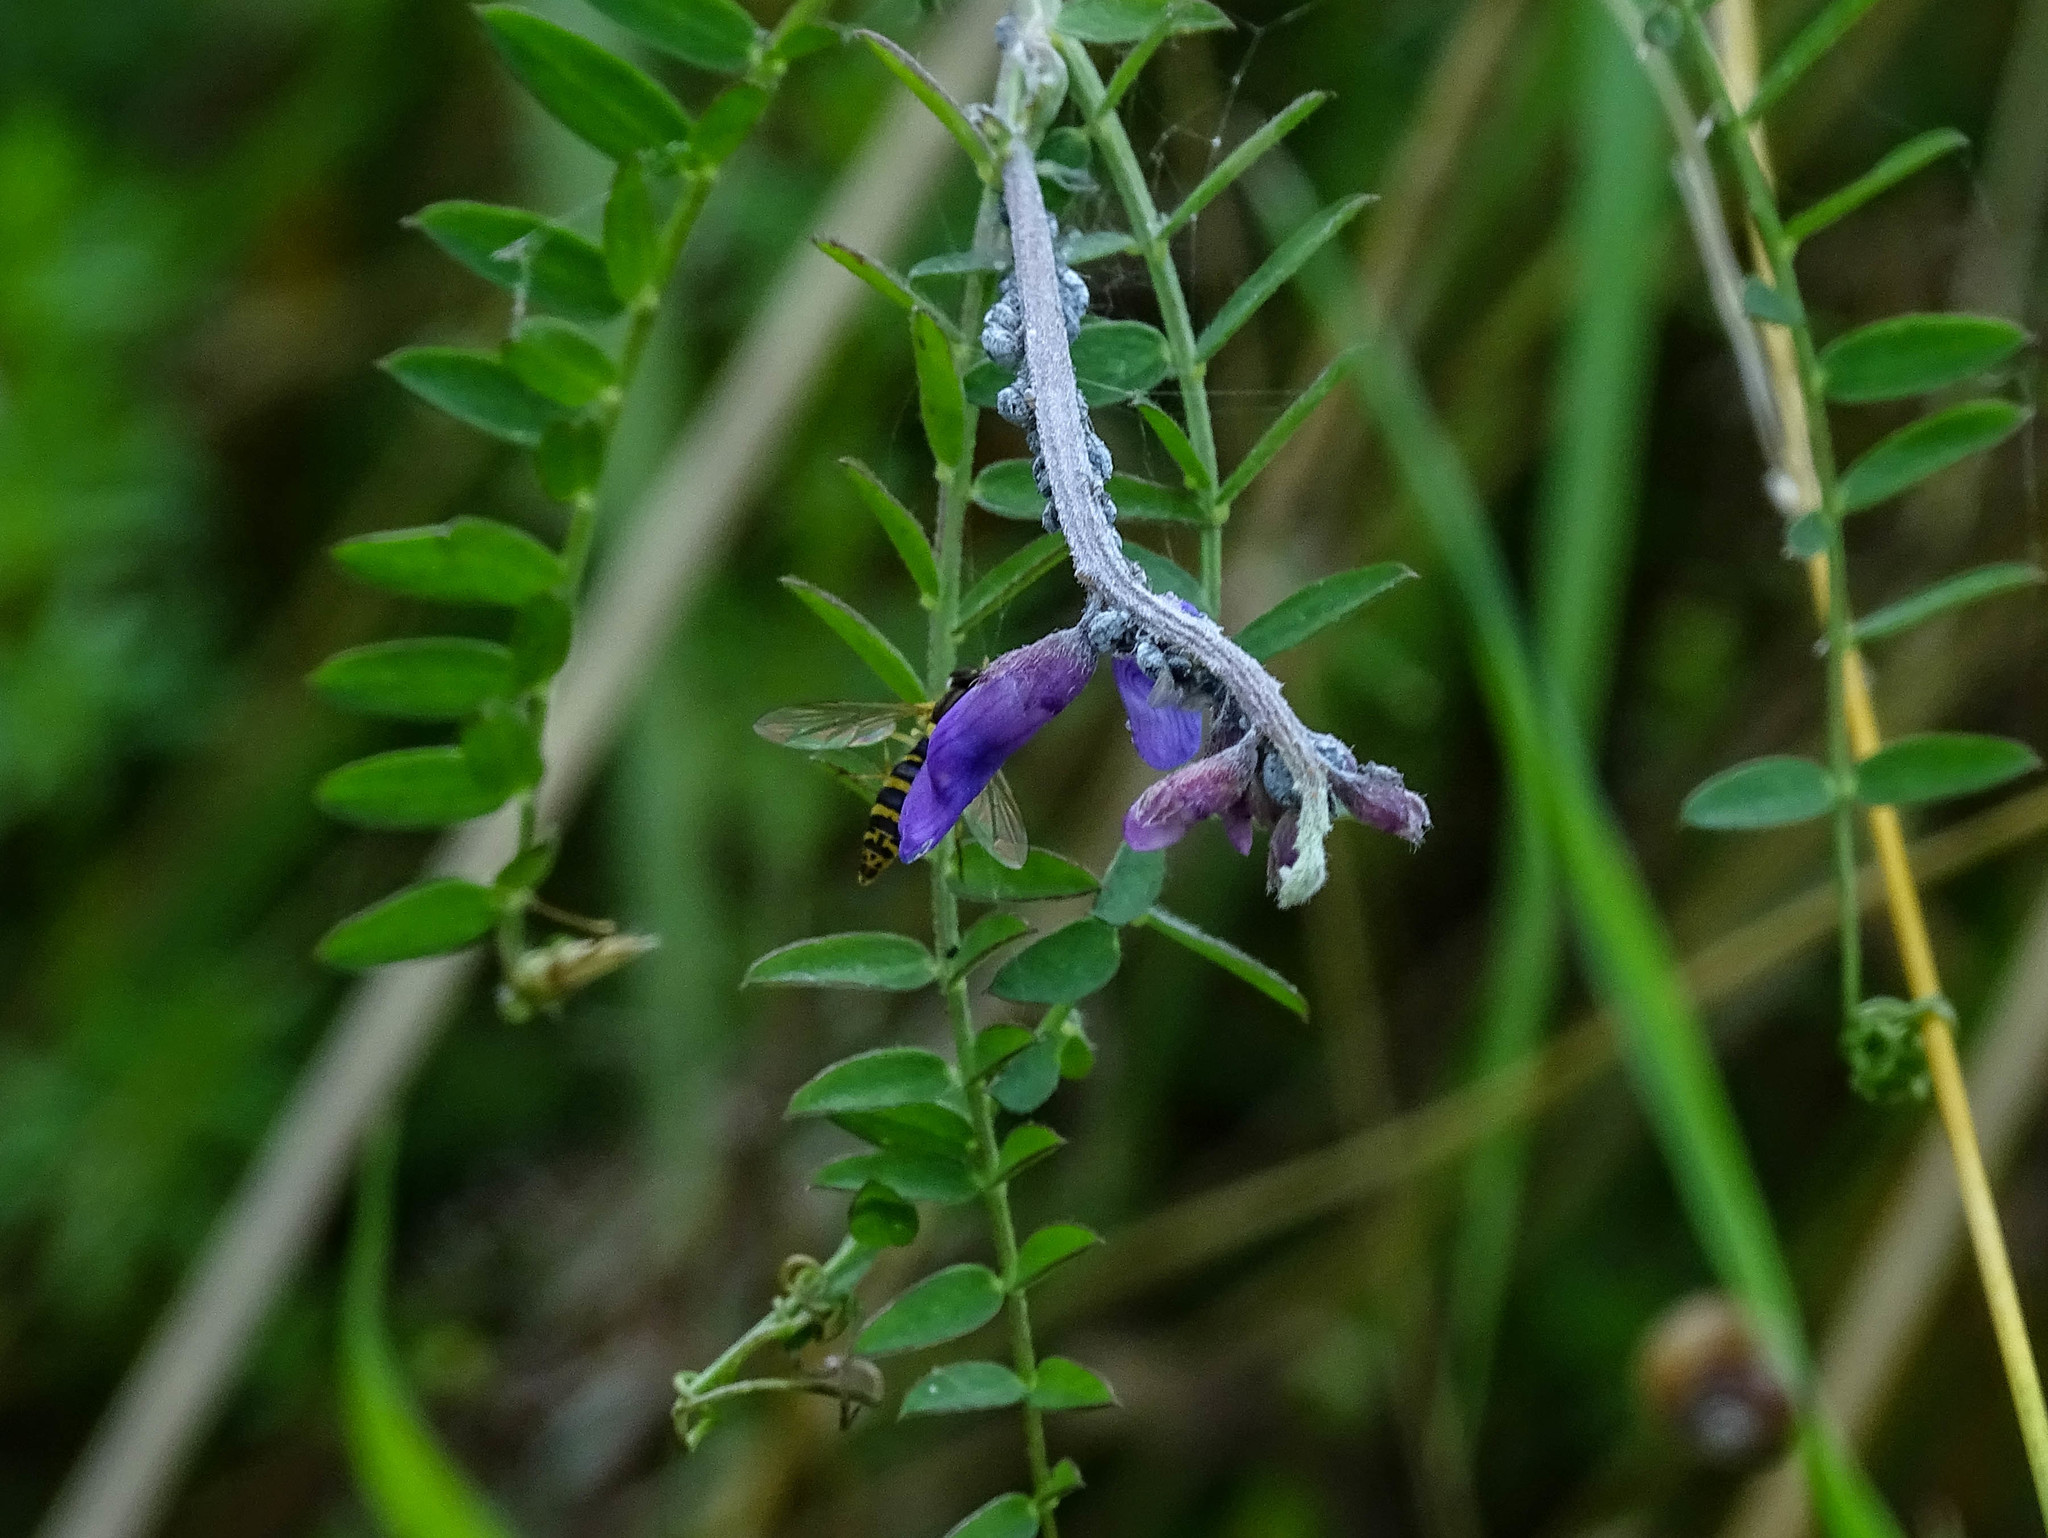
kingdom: Animalia
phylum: Arthropoda
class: Insecta
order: Diptera
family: Syrphidae
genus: Sphaerophoria
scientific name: Sphaerophoria
